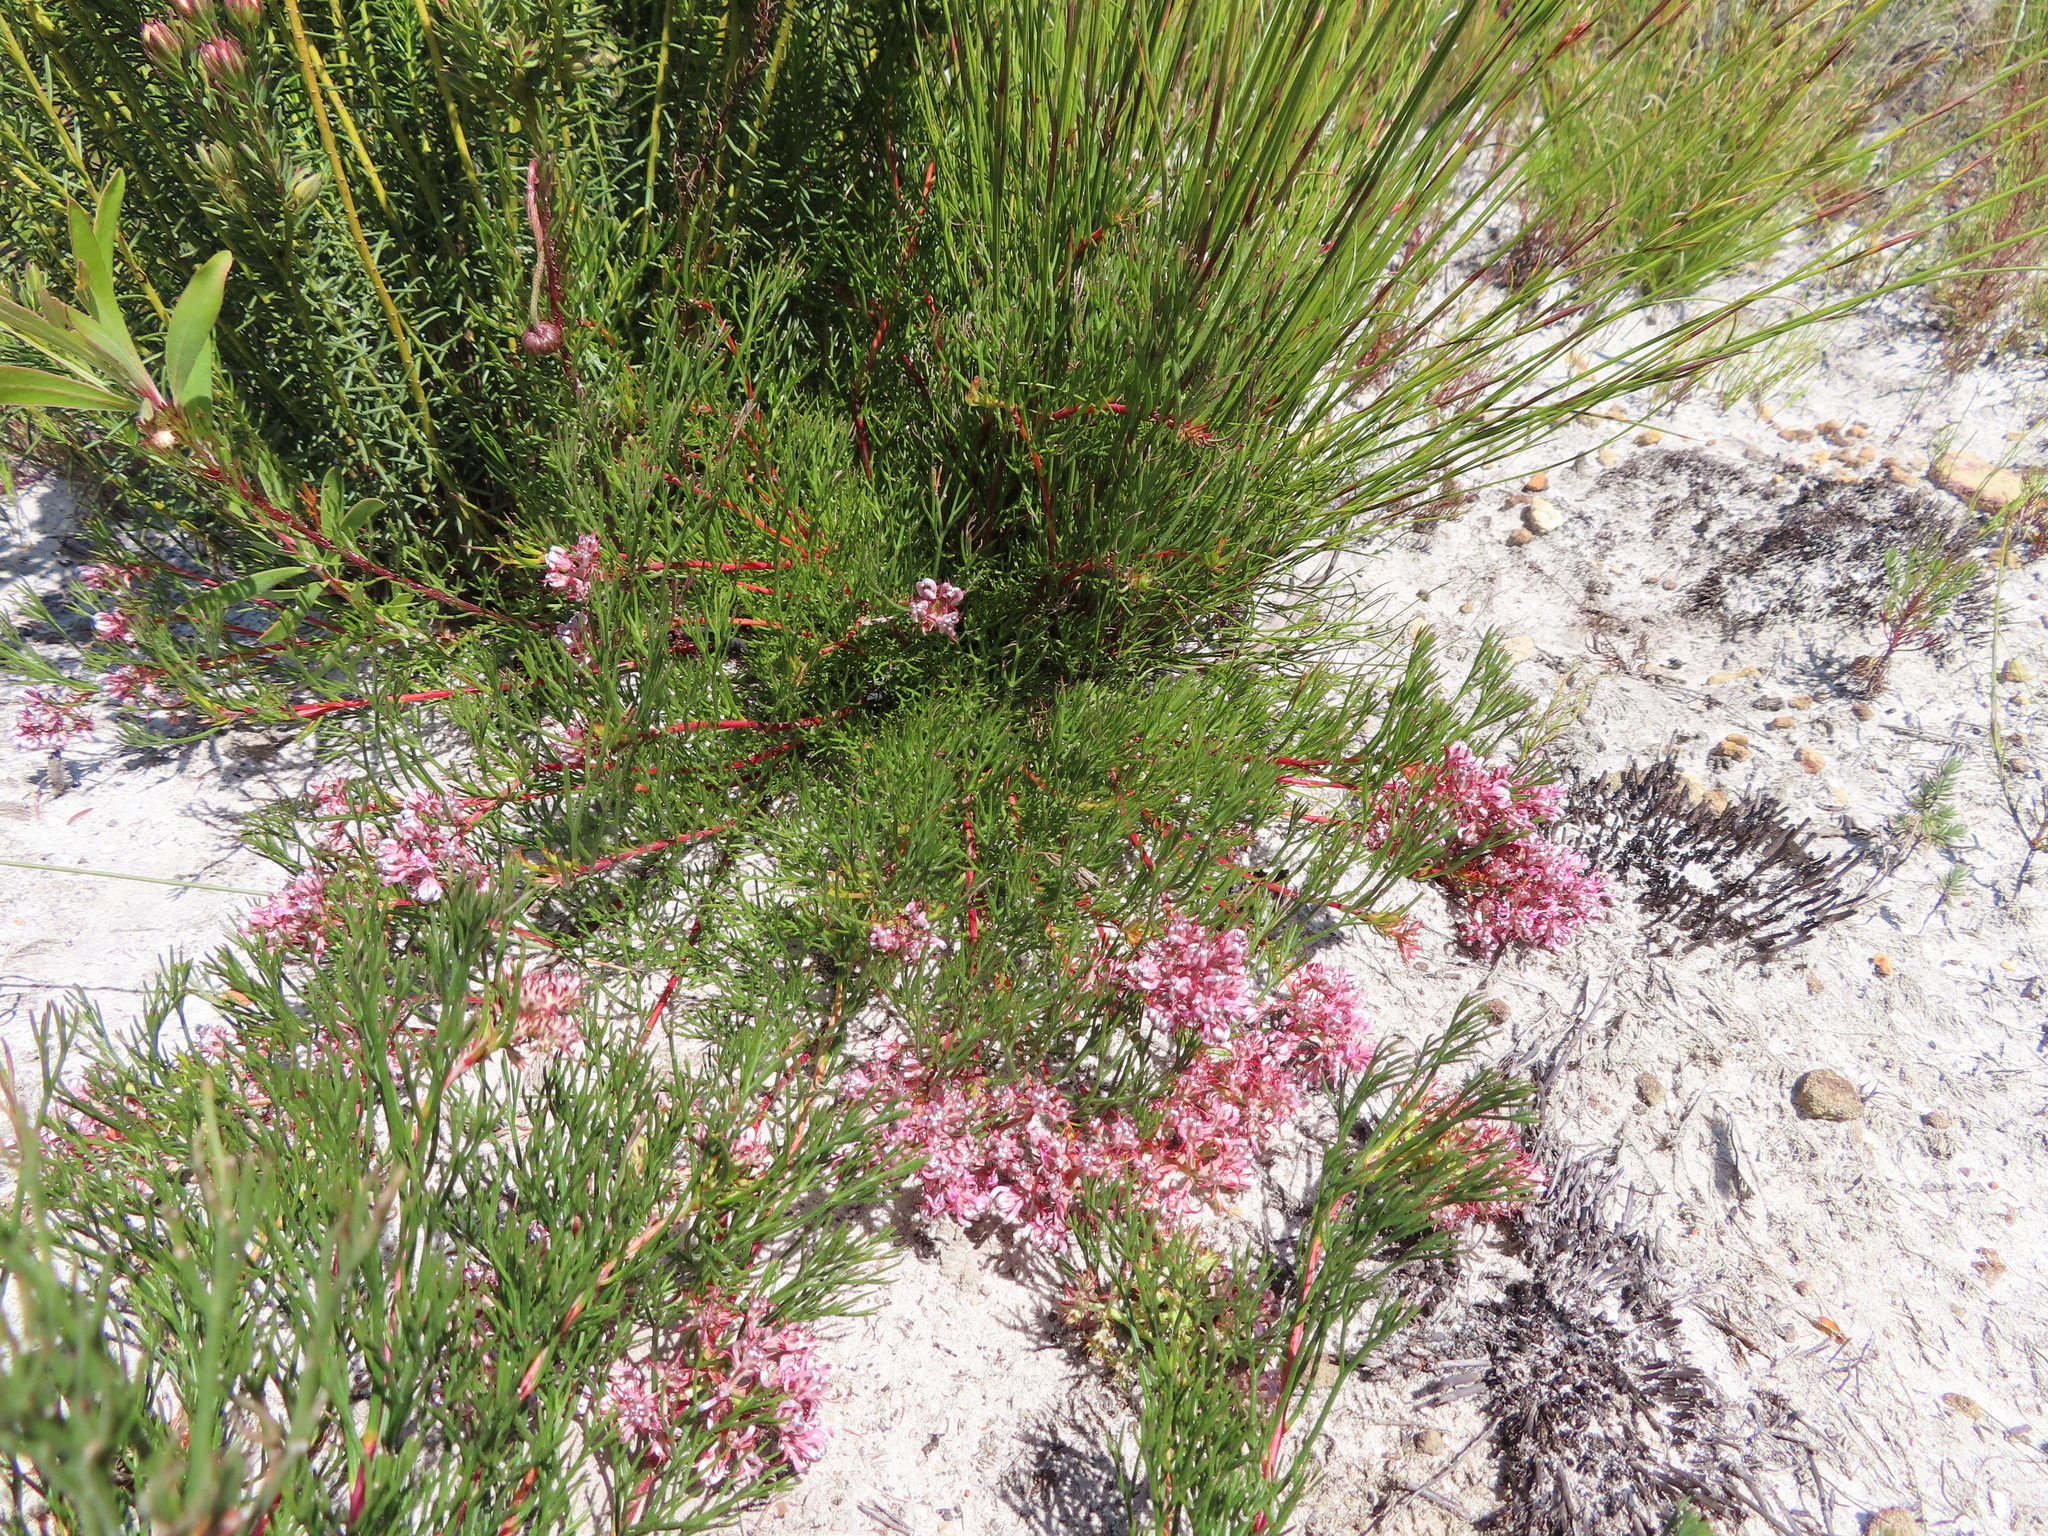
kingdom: Plantae
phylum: Tracheophyta
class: Magnoliopsida
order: Proteales
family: Proteaceae
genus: Serruria
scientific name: Serruria rubricaulis
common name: Red-stem spiderhead
